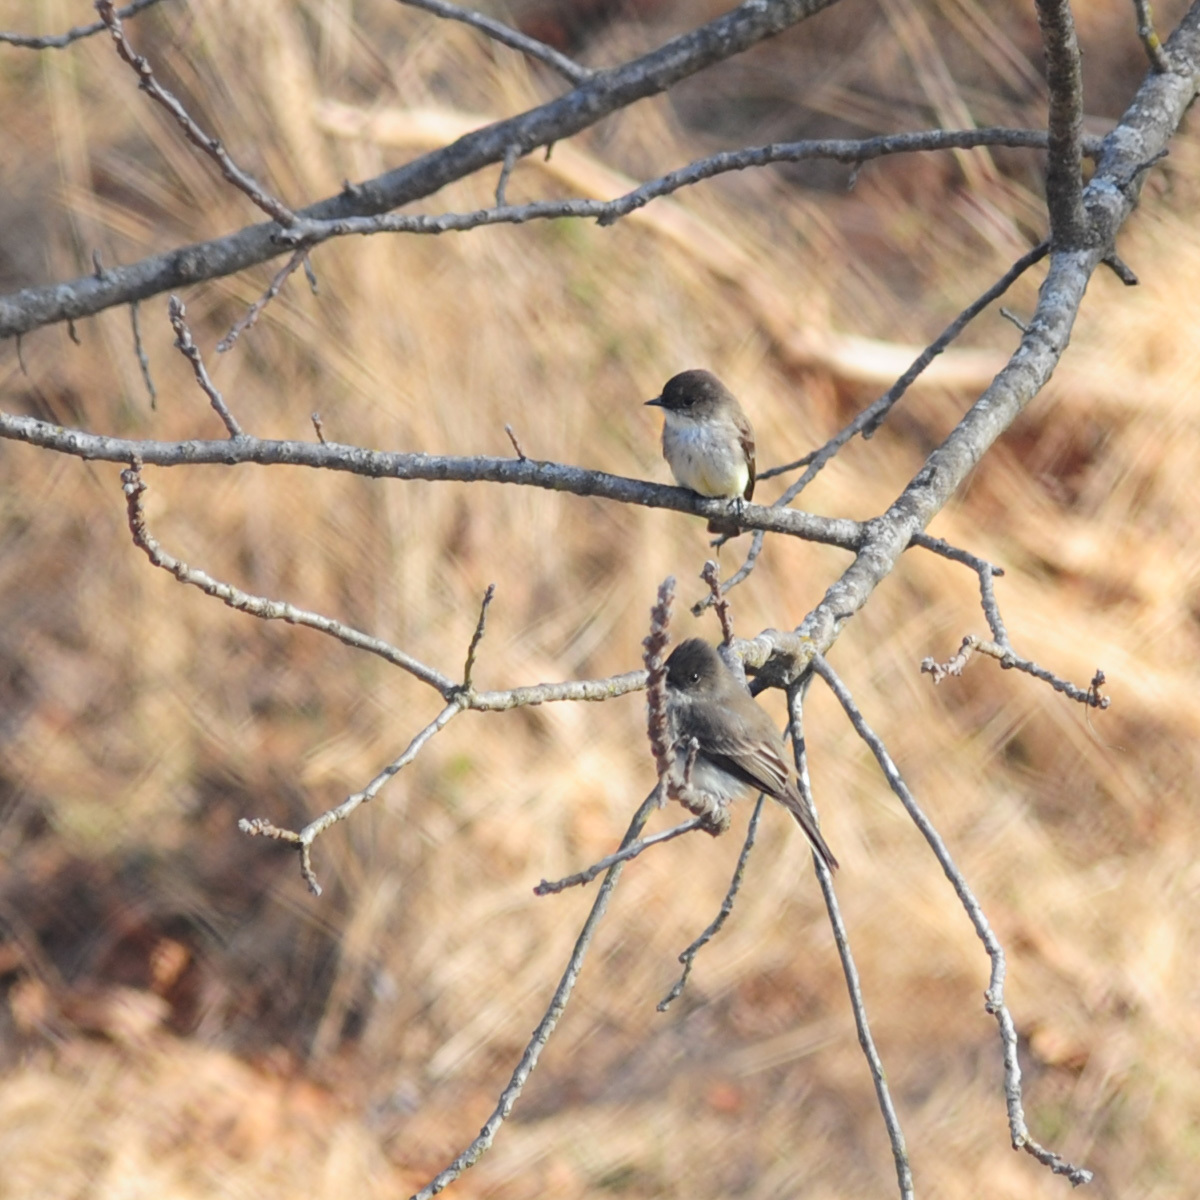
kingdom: Animalia
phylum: Chordata
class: Aves
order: Passeriformes
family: Tyrannidae
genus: Sayornis
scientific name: Sayornis phoebe
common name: Eastern phoebe
